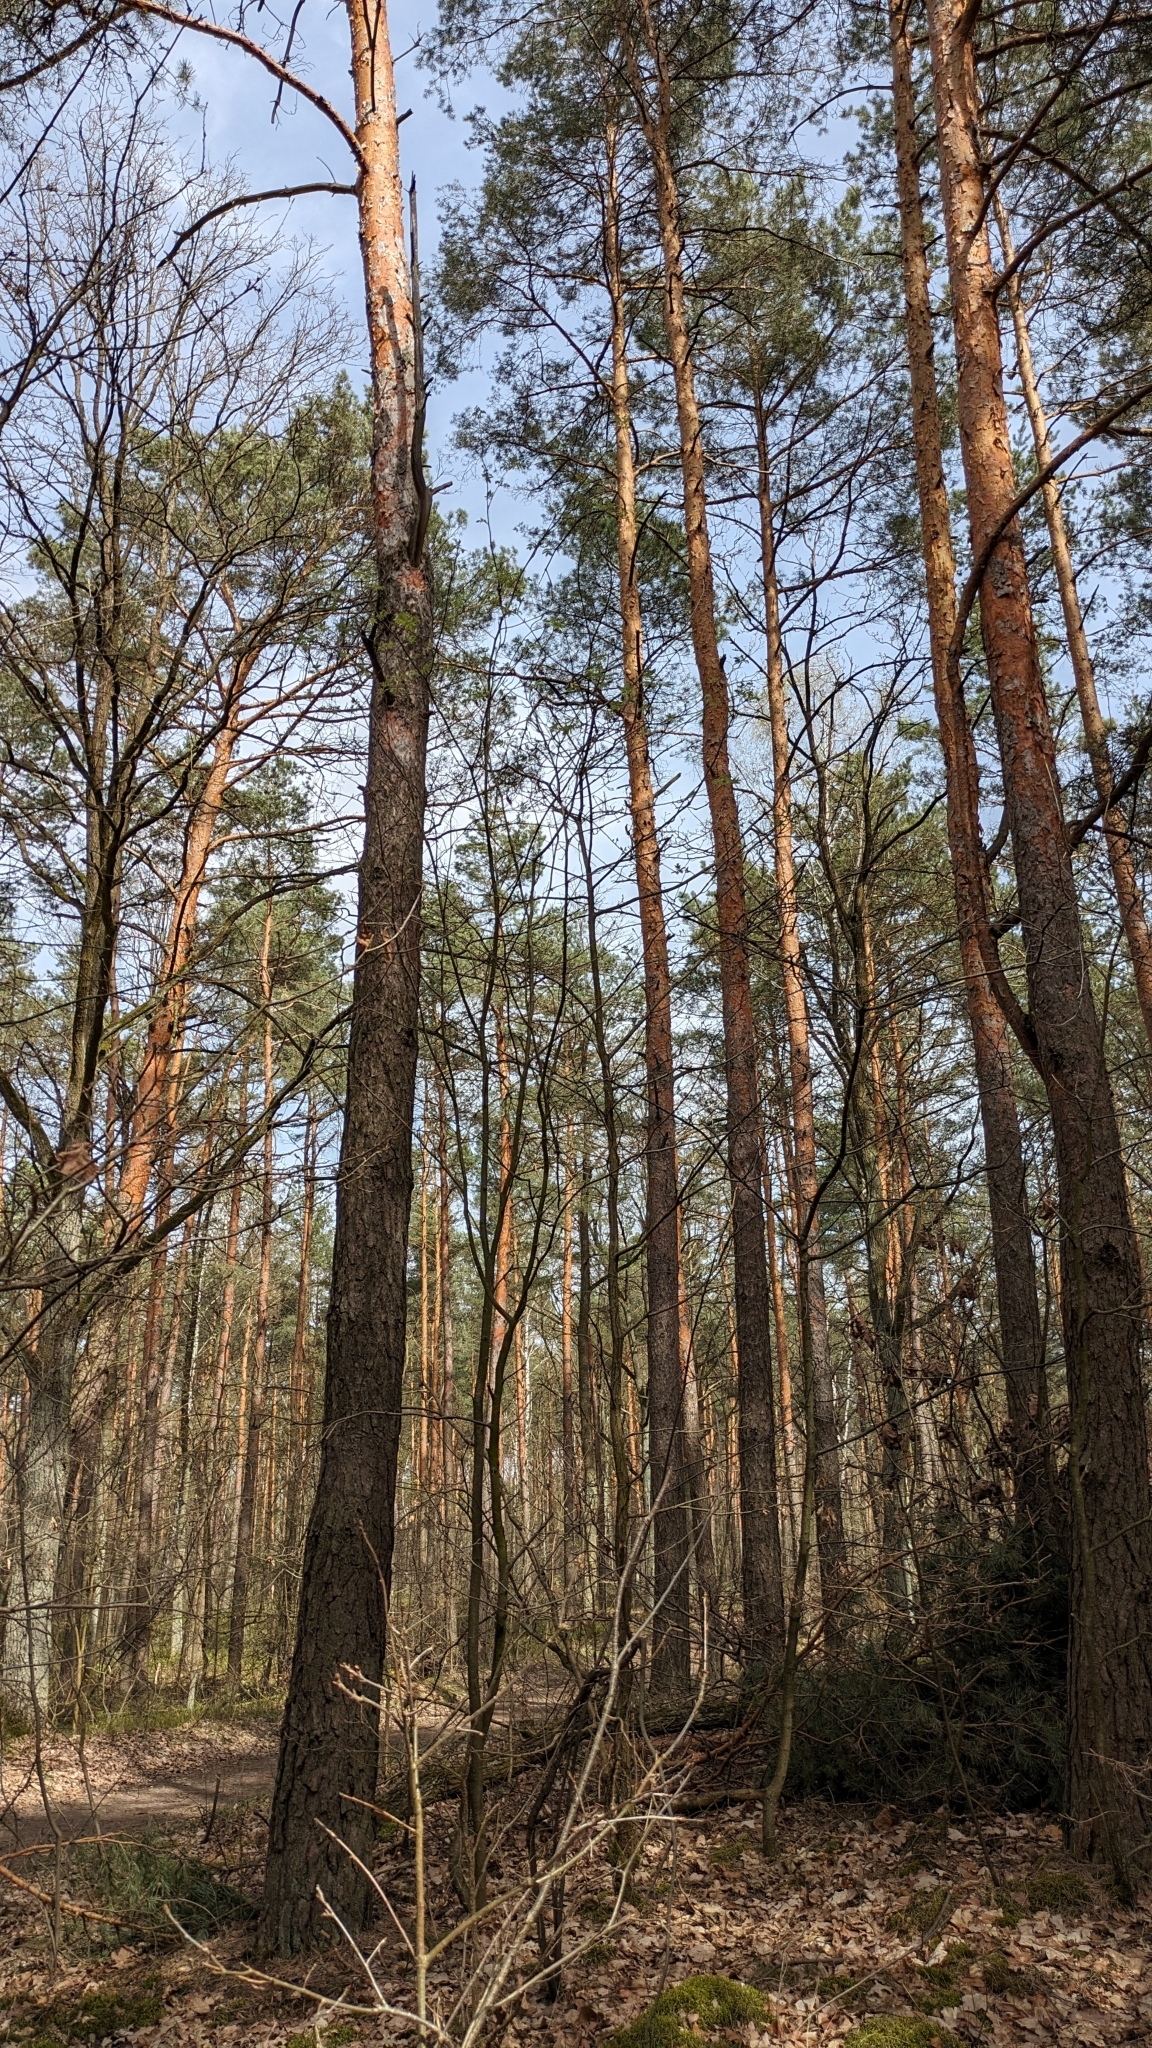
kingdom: Animalia
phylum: Chordata
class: Aves
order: Passeriformes
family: Fringillidae
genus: Fringilla
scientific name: Fringilla coelebs
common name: Common chaffinch
